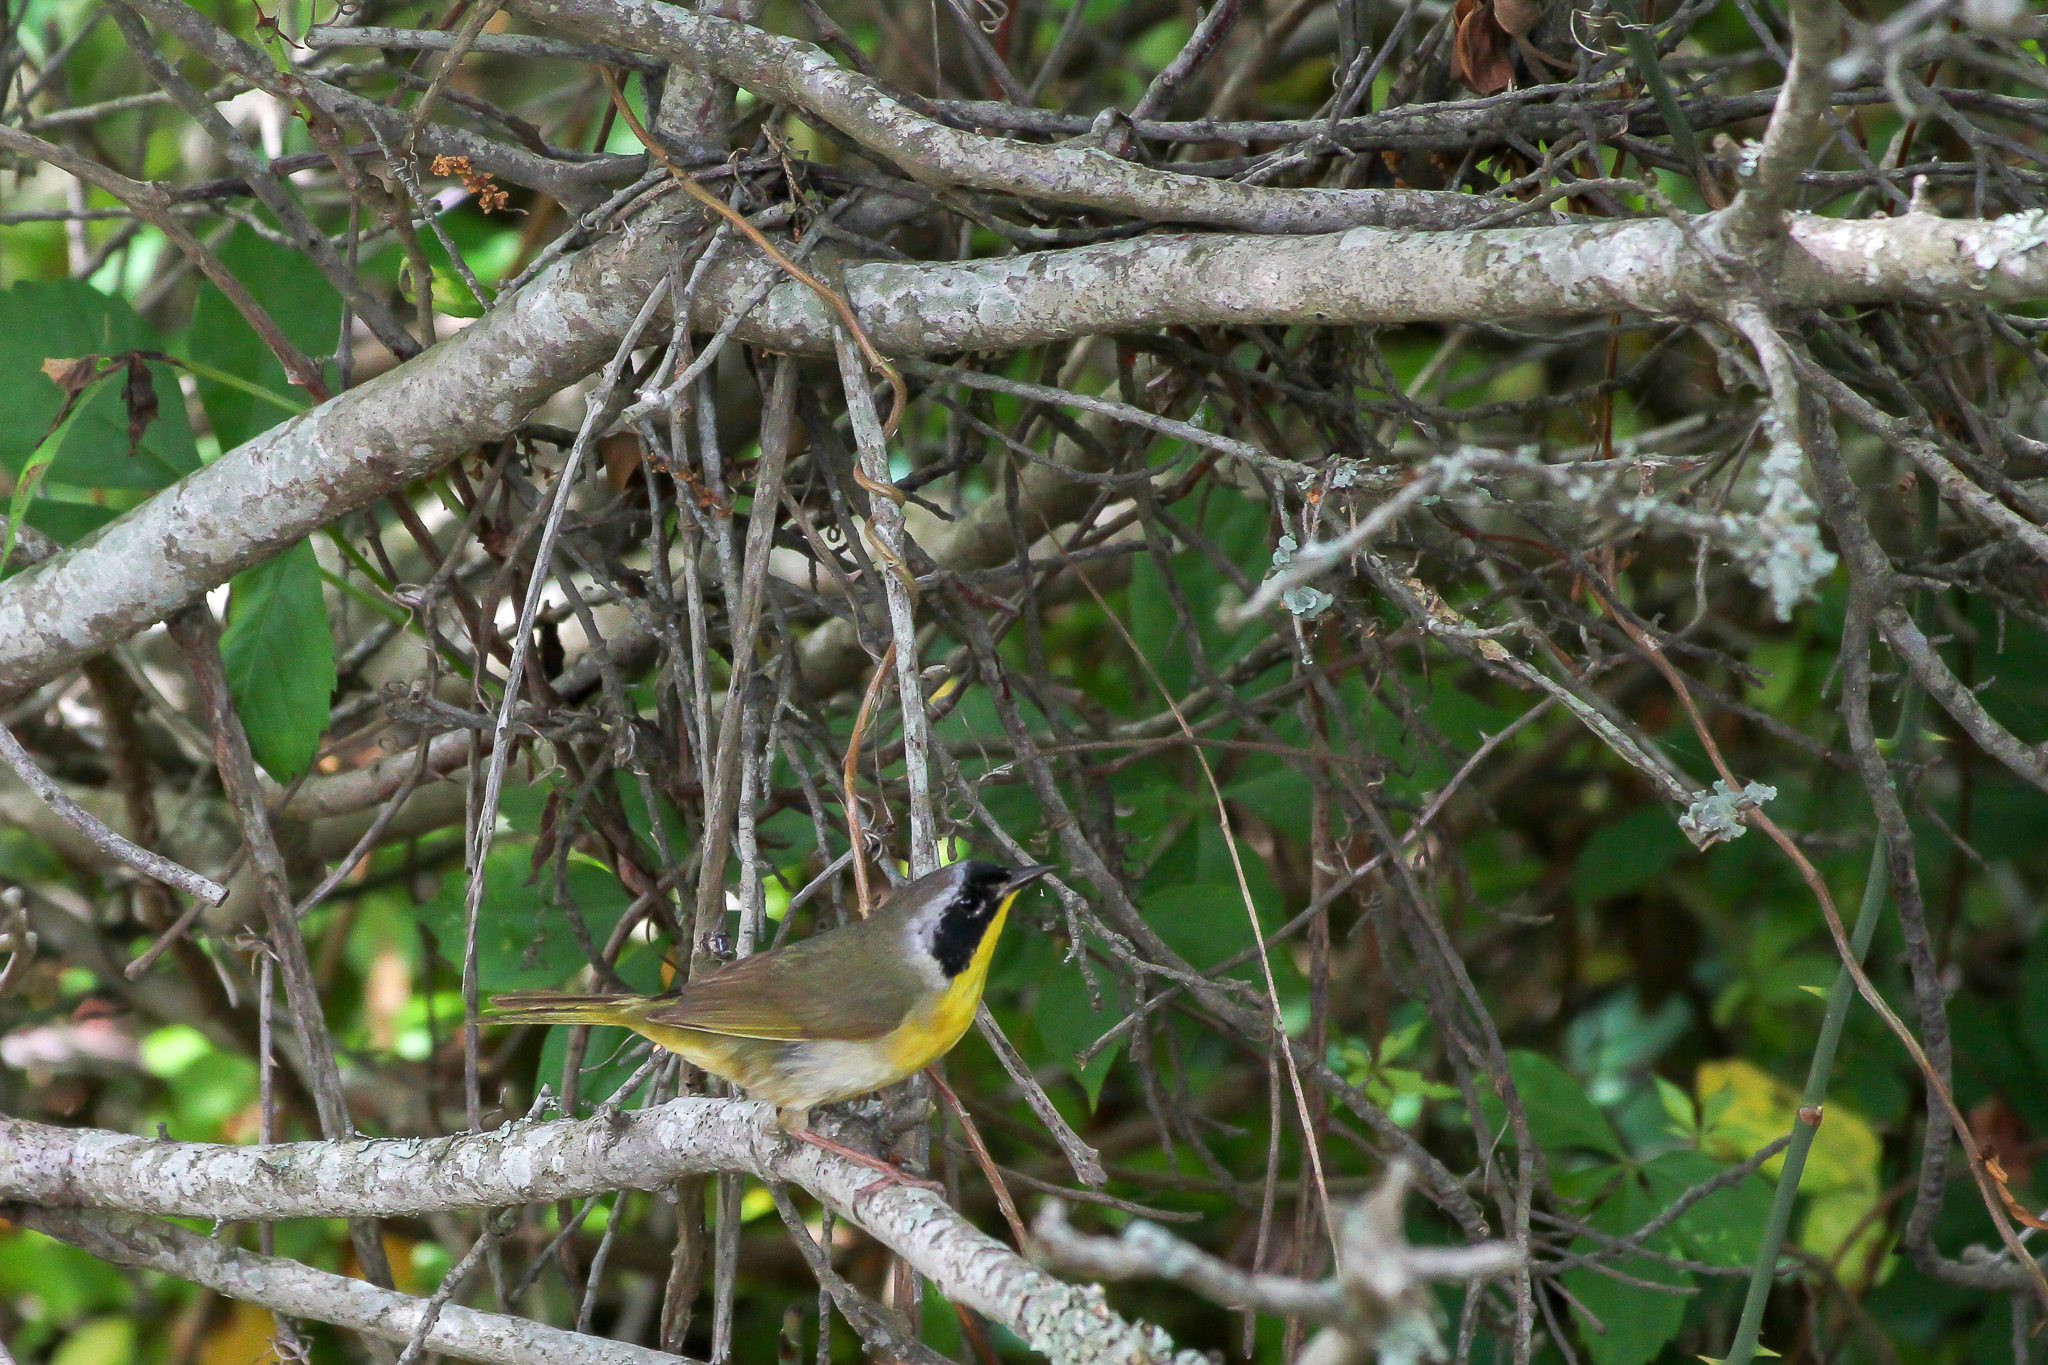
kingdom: Animalia
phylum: Chordata
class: Aves
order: Passeriformes
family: Parulidae
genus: Geothlypis
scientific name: Geothlypis trichas
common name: Common yellowthroat
